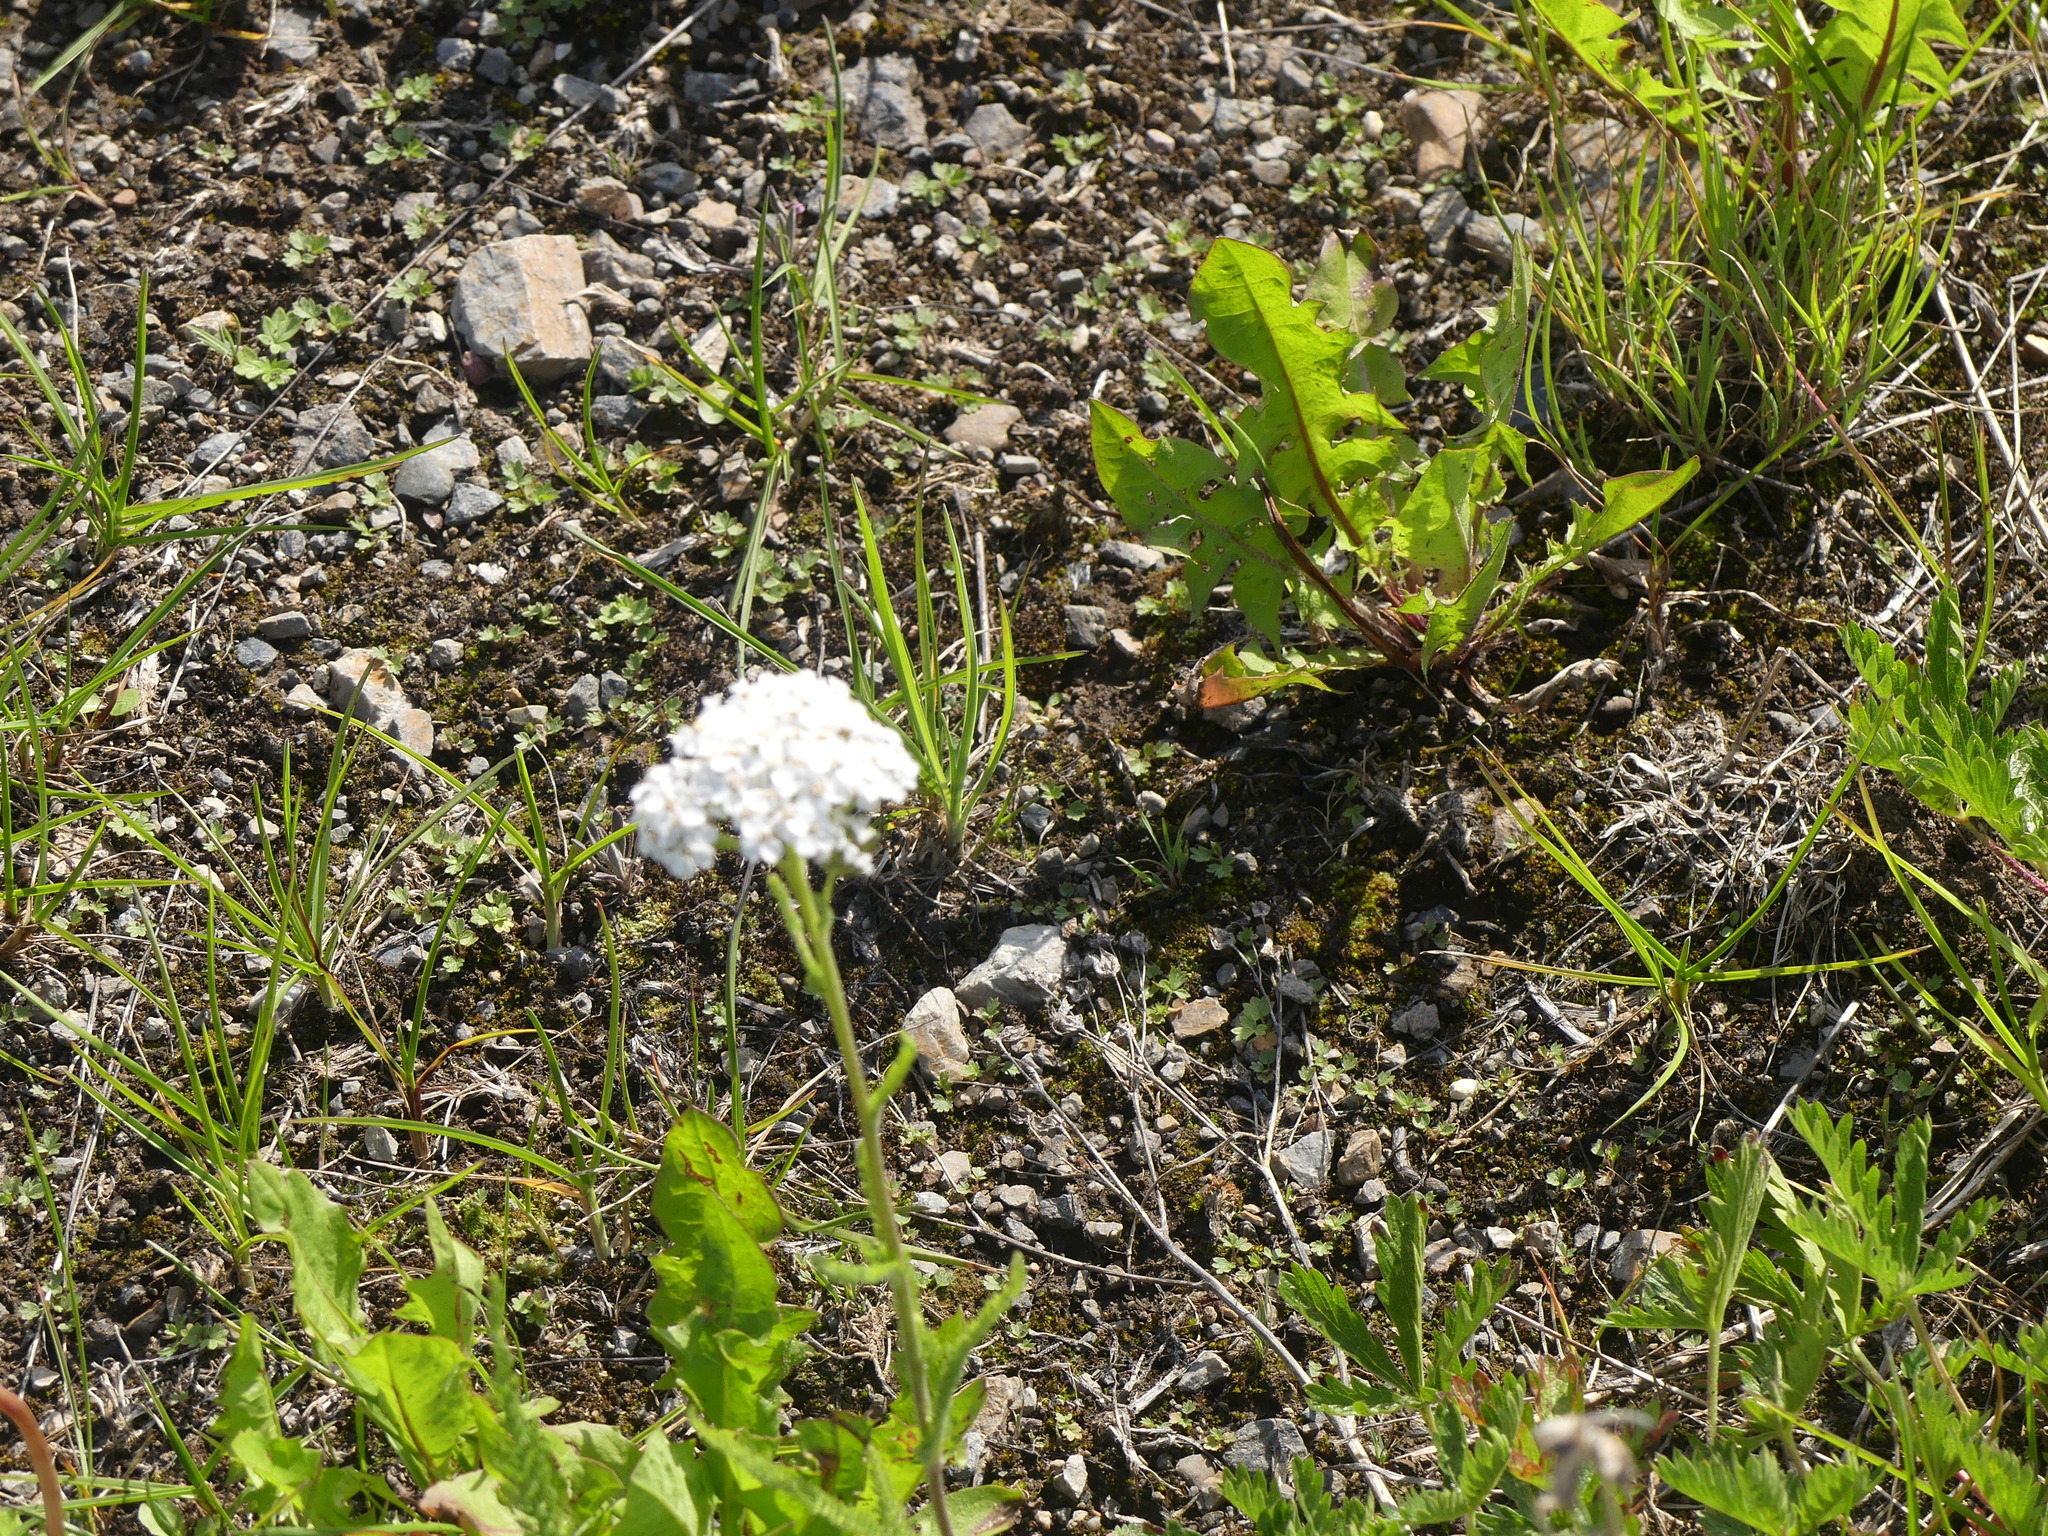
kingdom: Plantae
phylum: Tracheophyta
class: Magnoliopsida
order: Asterales
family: Asteraceae
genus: Achillea
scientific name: Achillea millefolium
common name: Yarrow
